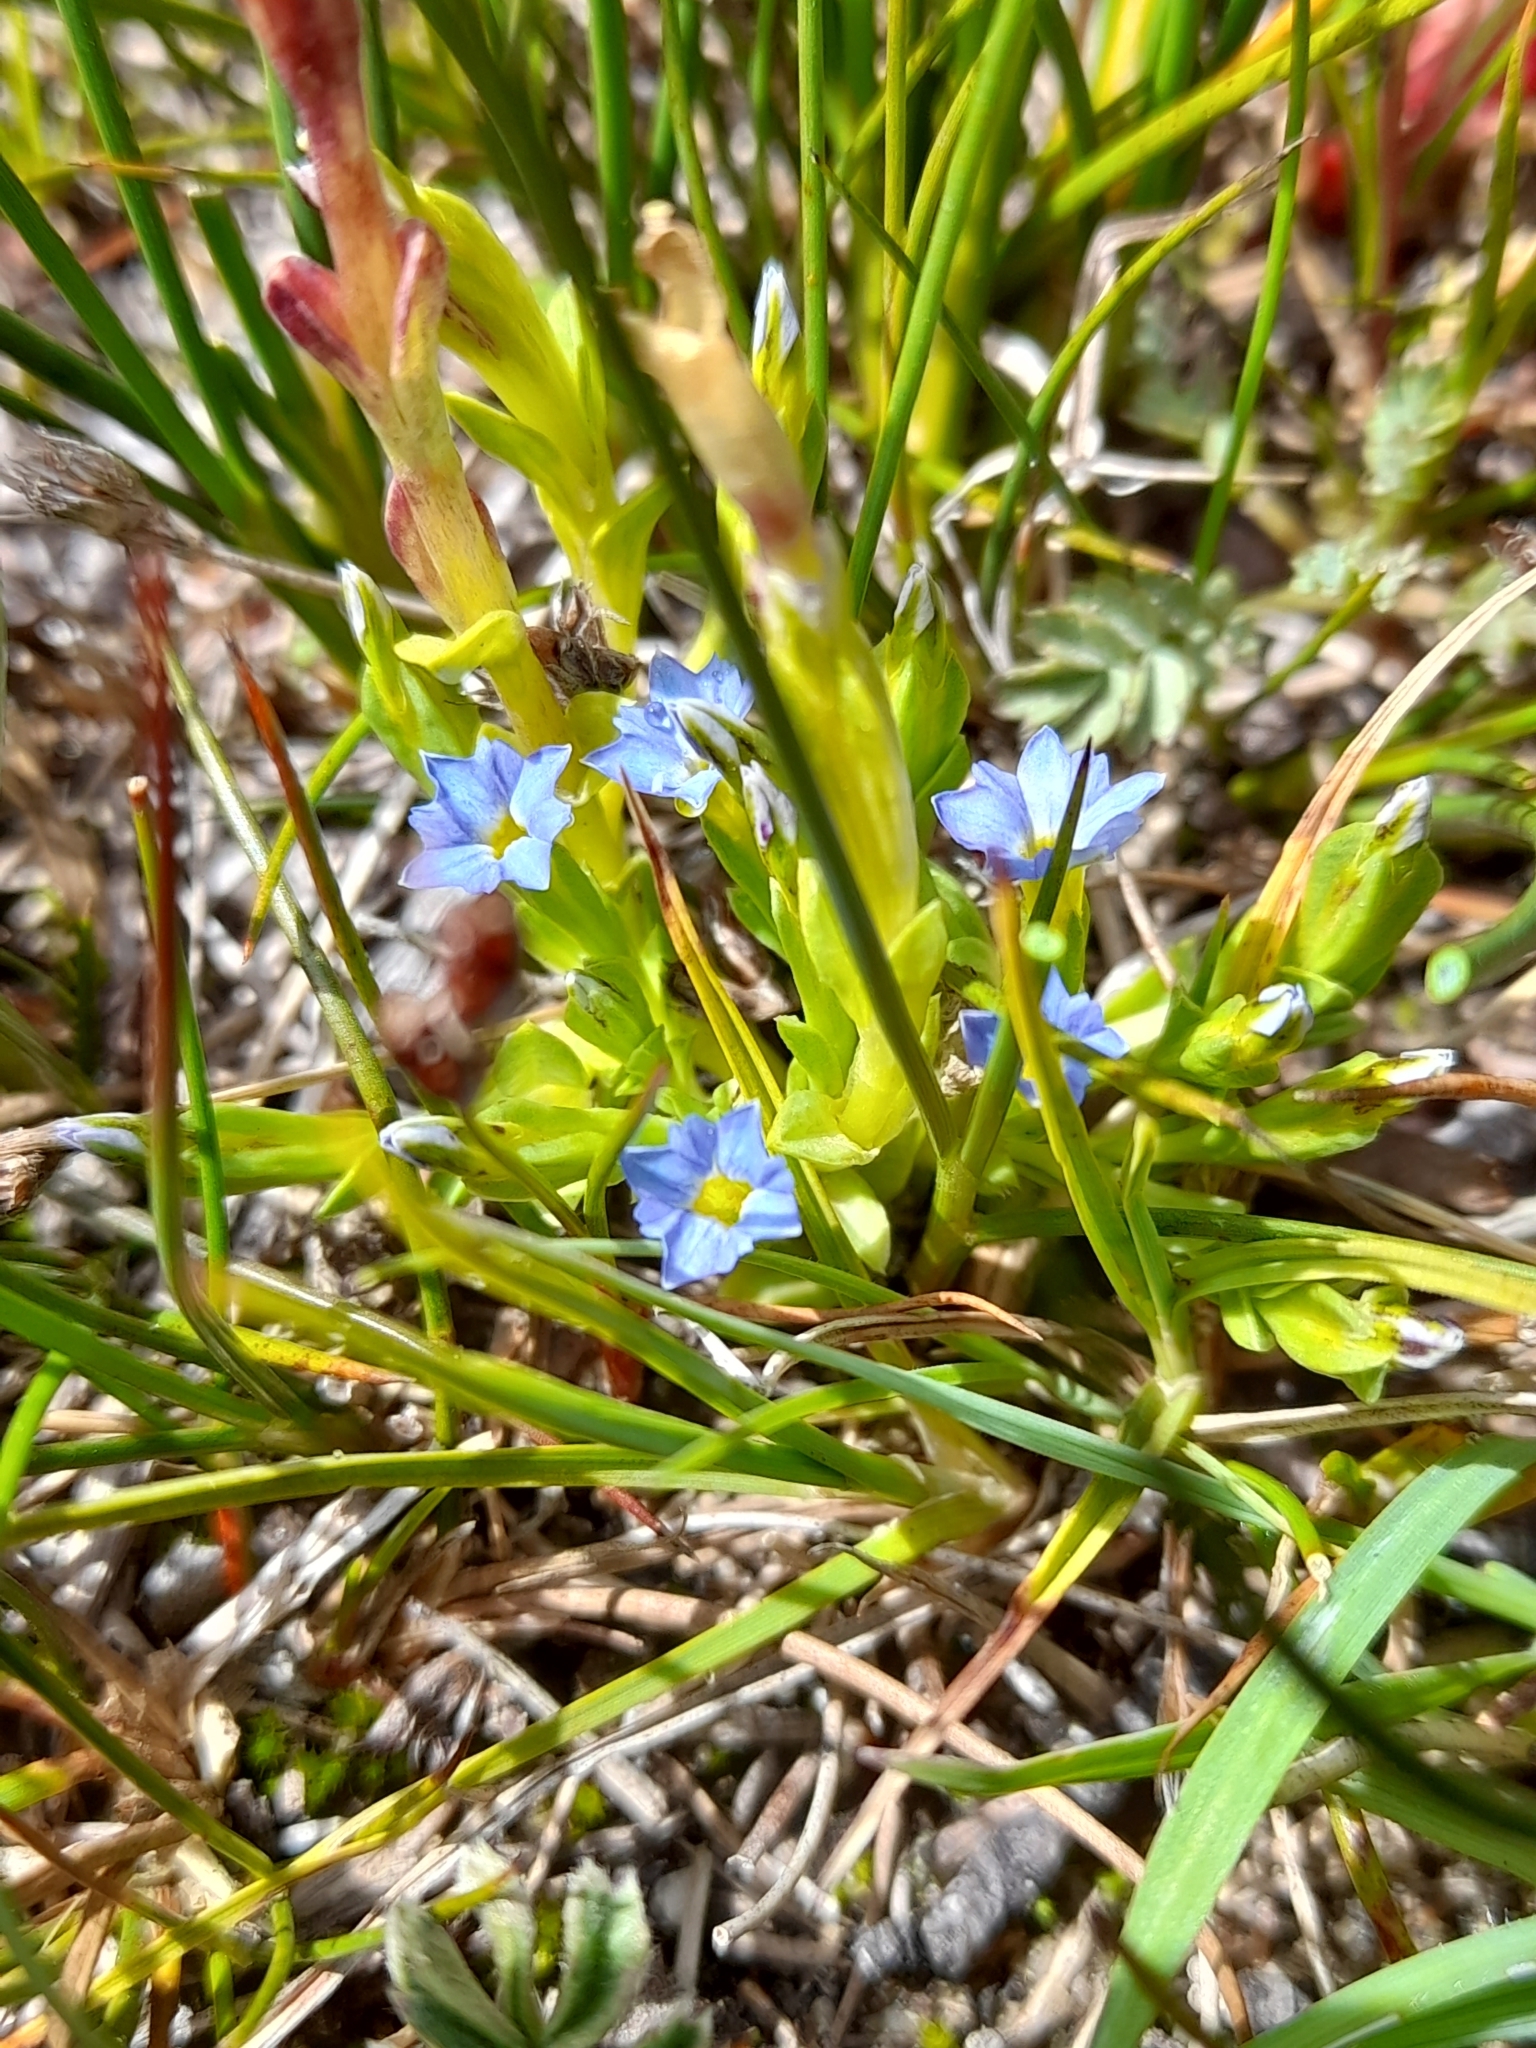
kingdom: Plantae
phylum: Tracheophyta
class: Magnoliopsida
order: Gentianales
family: Gentianaceae
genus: Gentiana
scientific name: Gentiana prostrata
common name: Moss gentian
